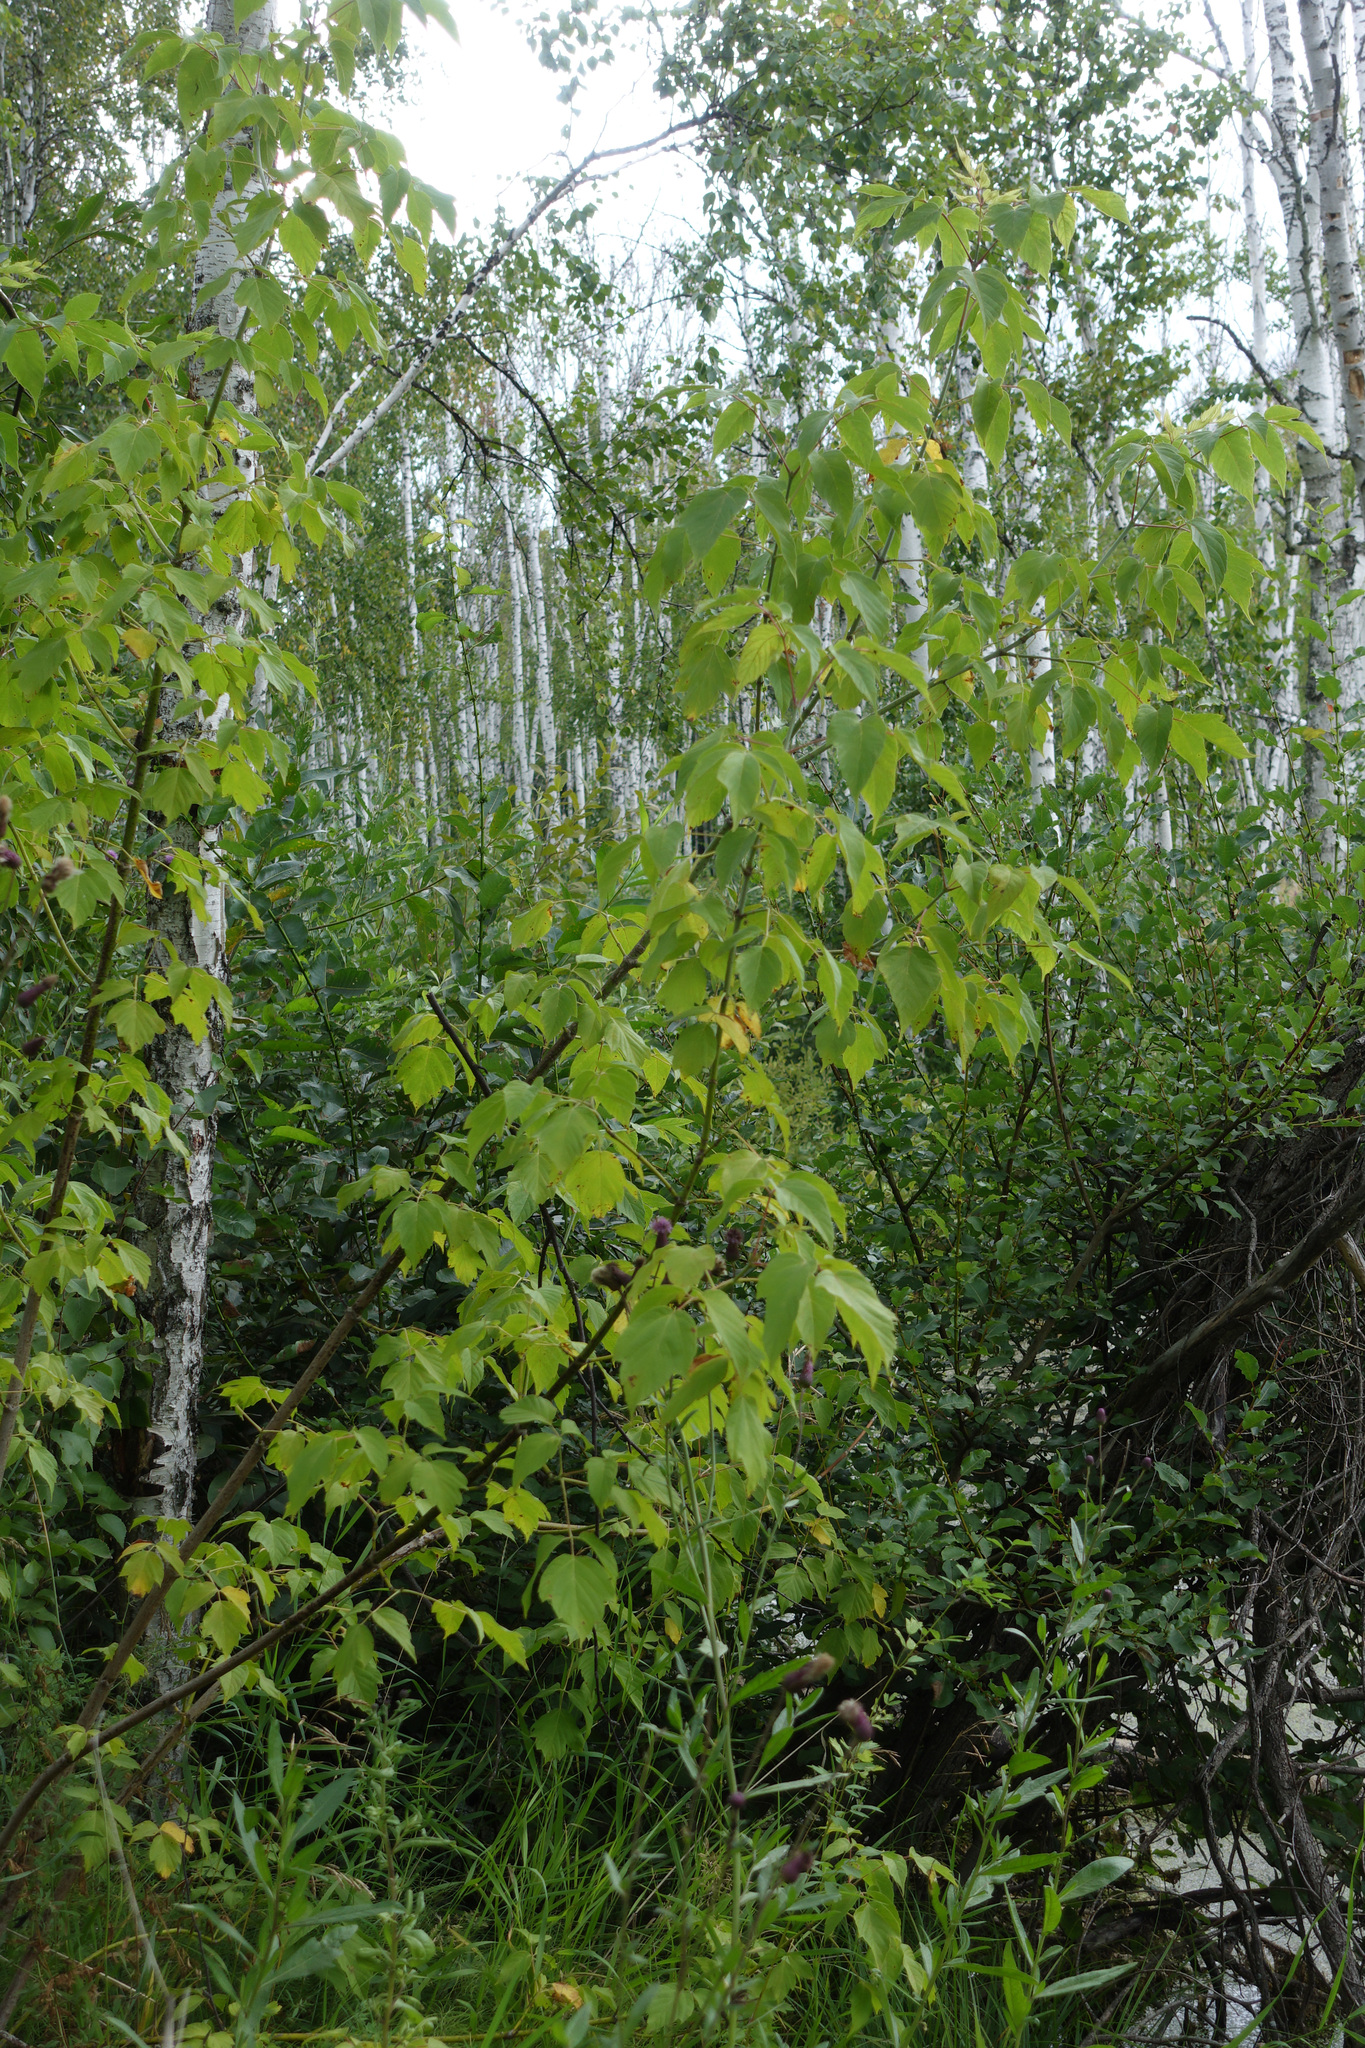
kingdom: Plantae
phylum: Tracheophyta
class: Magnoliopsida
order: Sapindales
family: Sapindaceae
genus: Acer
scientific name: Acer negundo
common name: Ashleaf maple
